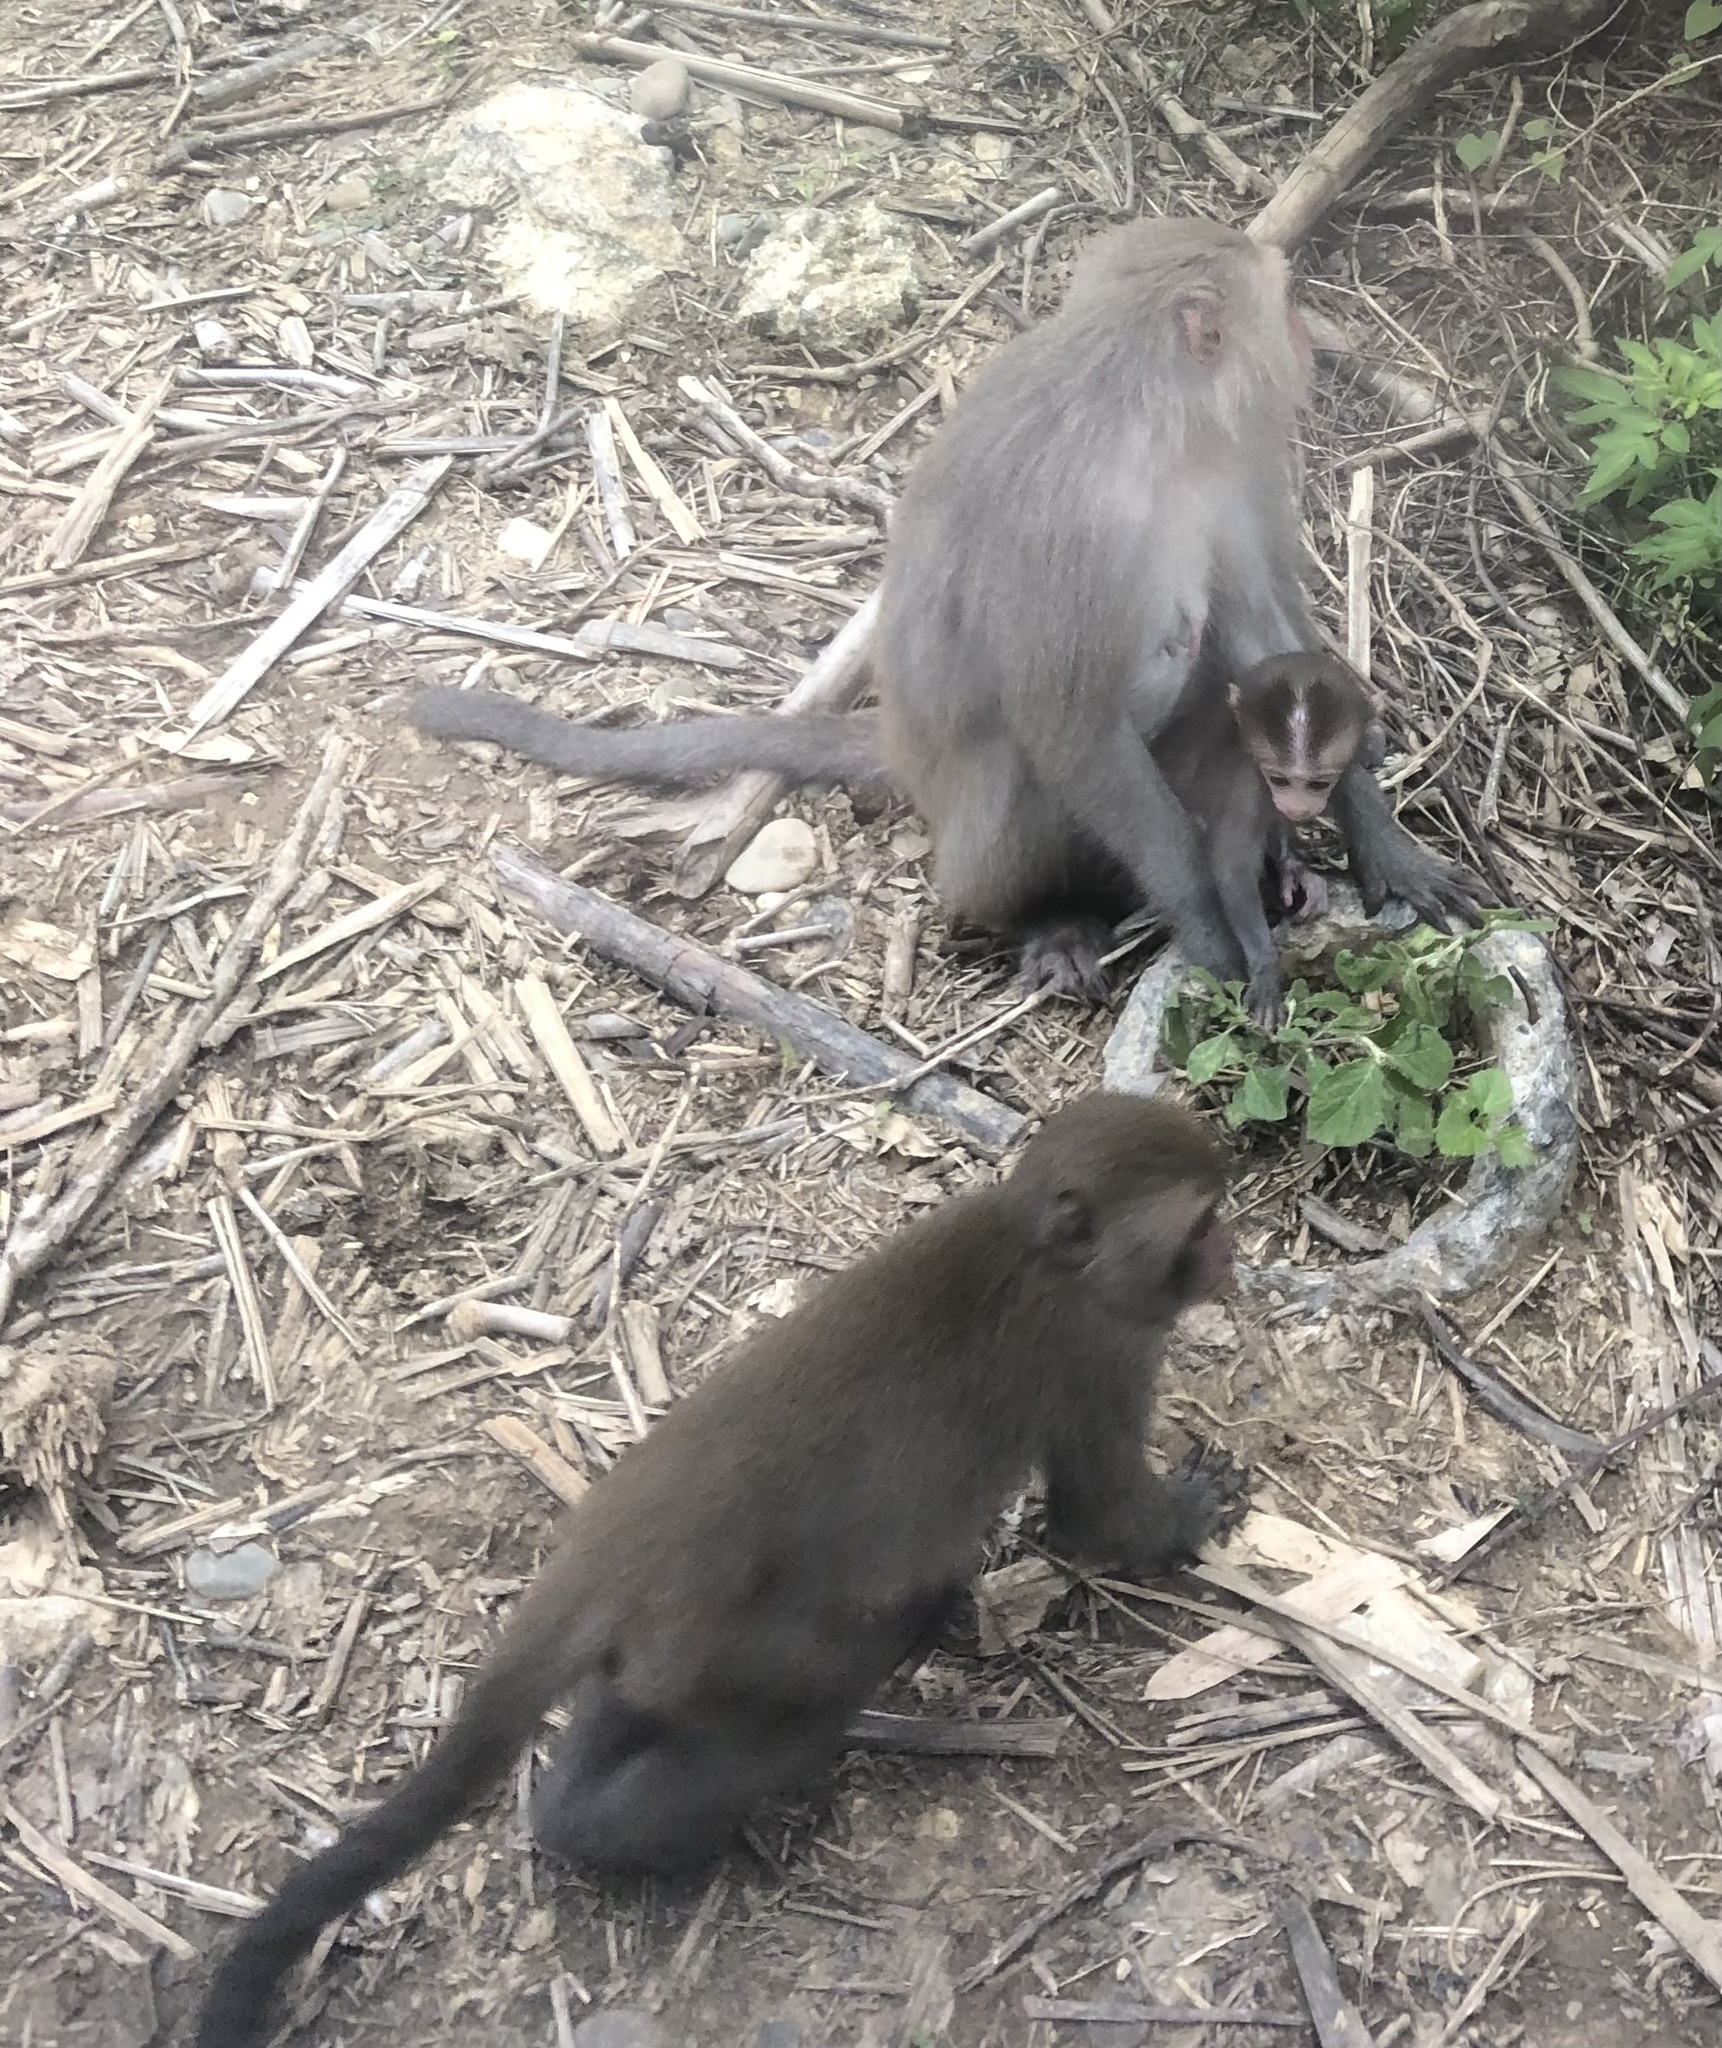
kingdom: Animalia
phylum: Chordata
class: Mammalia
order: Primates
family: Cercopithecidae
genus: Macaca
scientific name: Macaca cyclopis
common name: Formosan rock macaque
